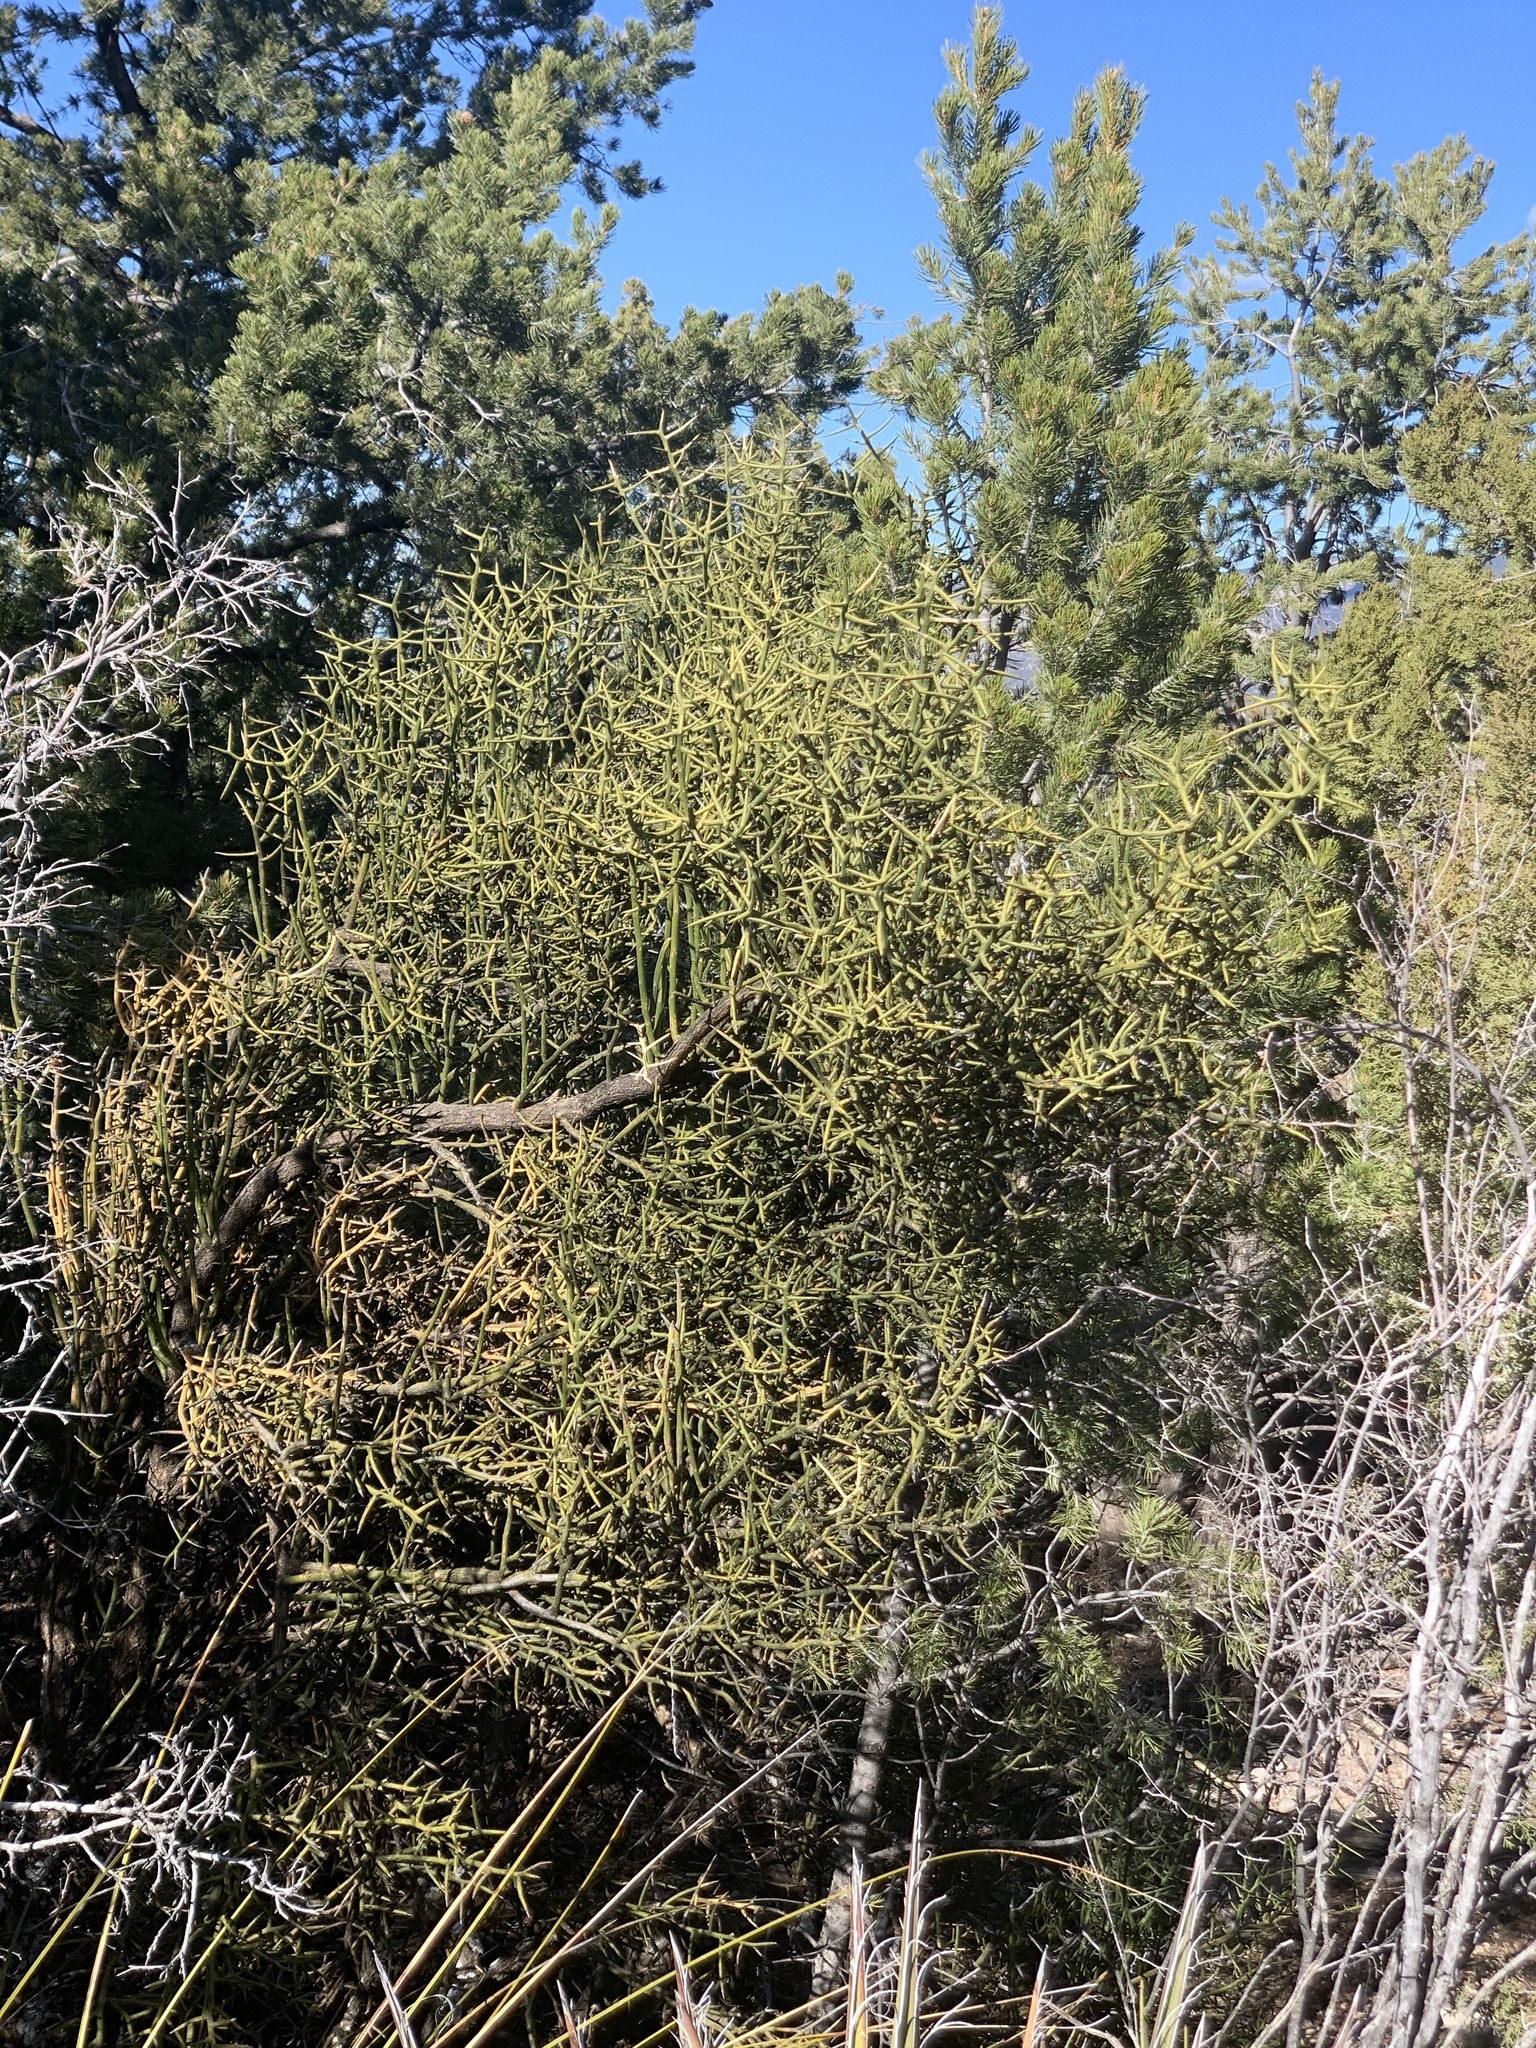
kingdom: Plantae
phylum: Tracheophyta
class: Magnoliopsida
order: Brassicales
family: Koeberliniaceae
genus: Koeberlinia
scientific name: Koeberlinia spinosa
